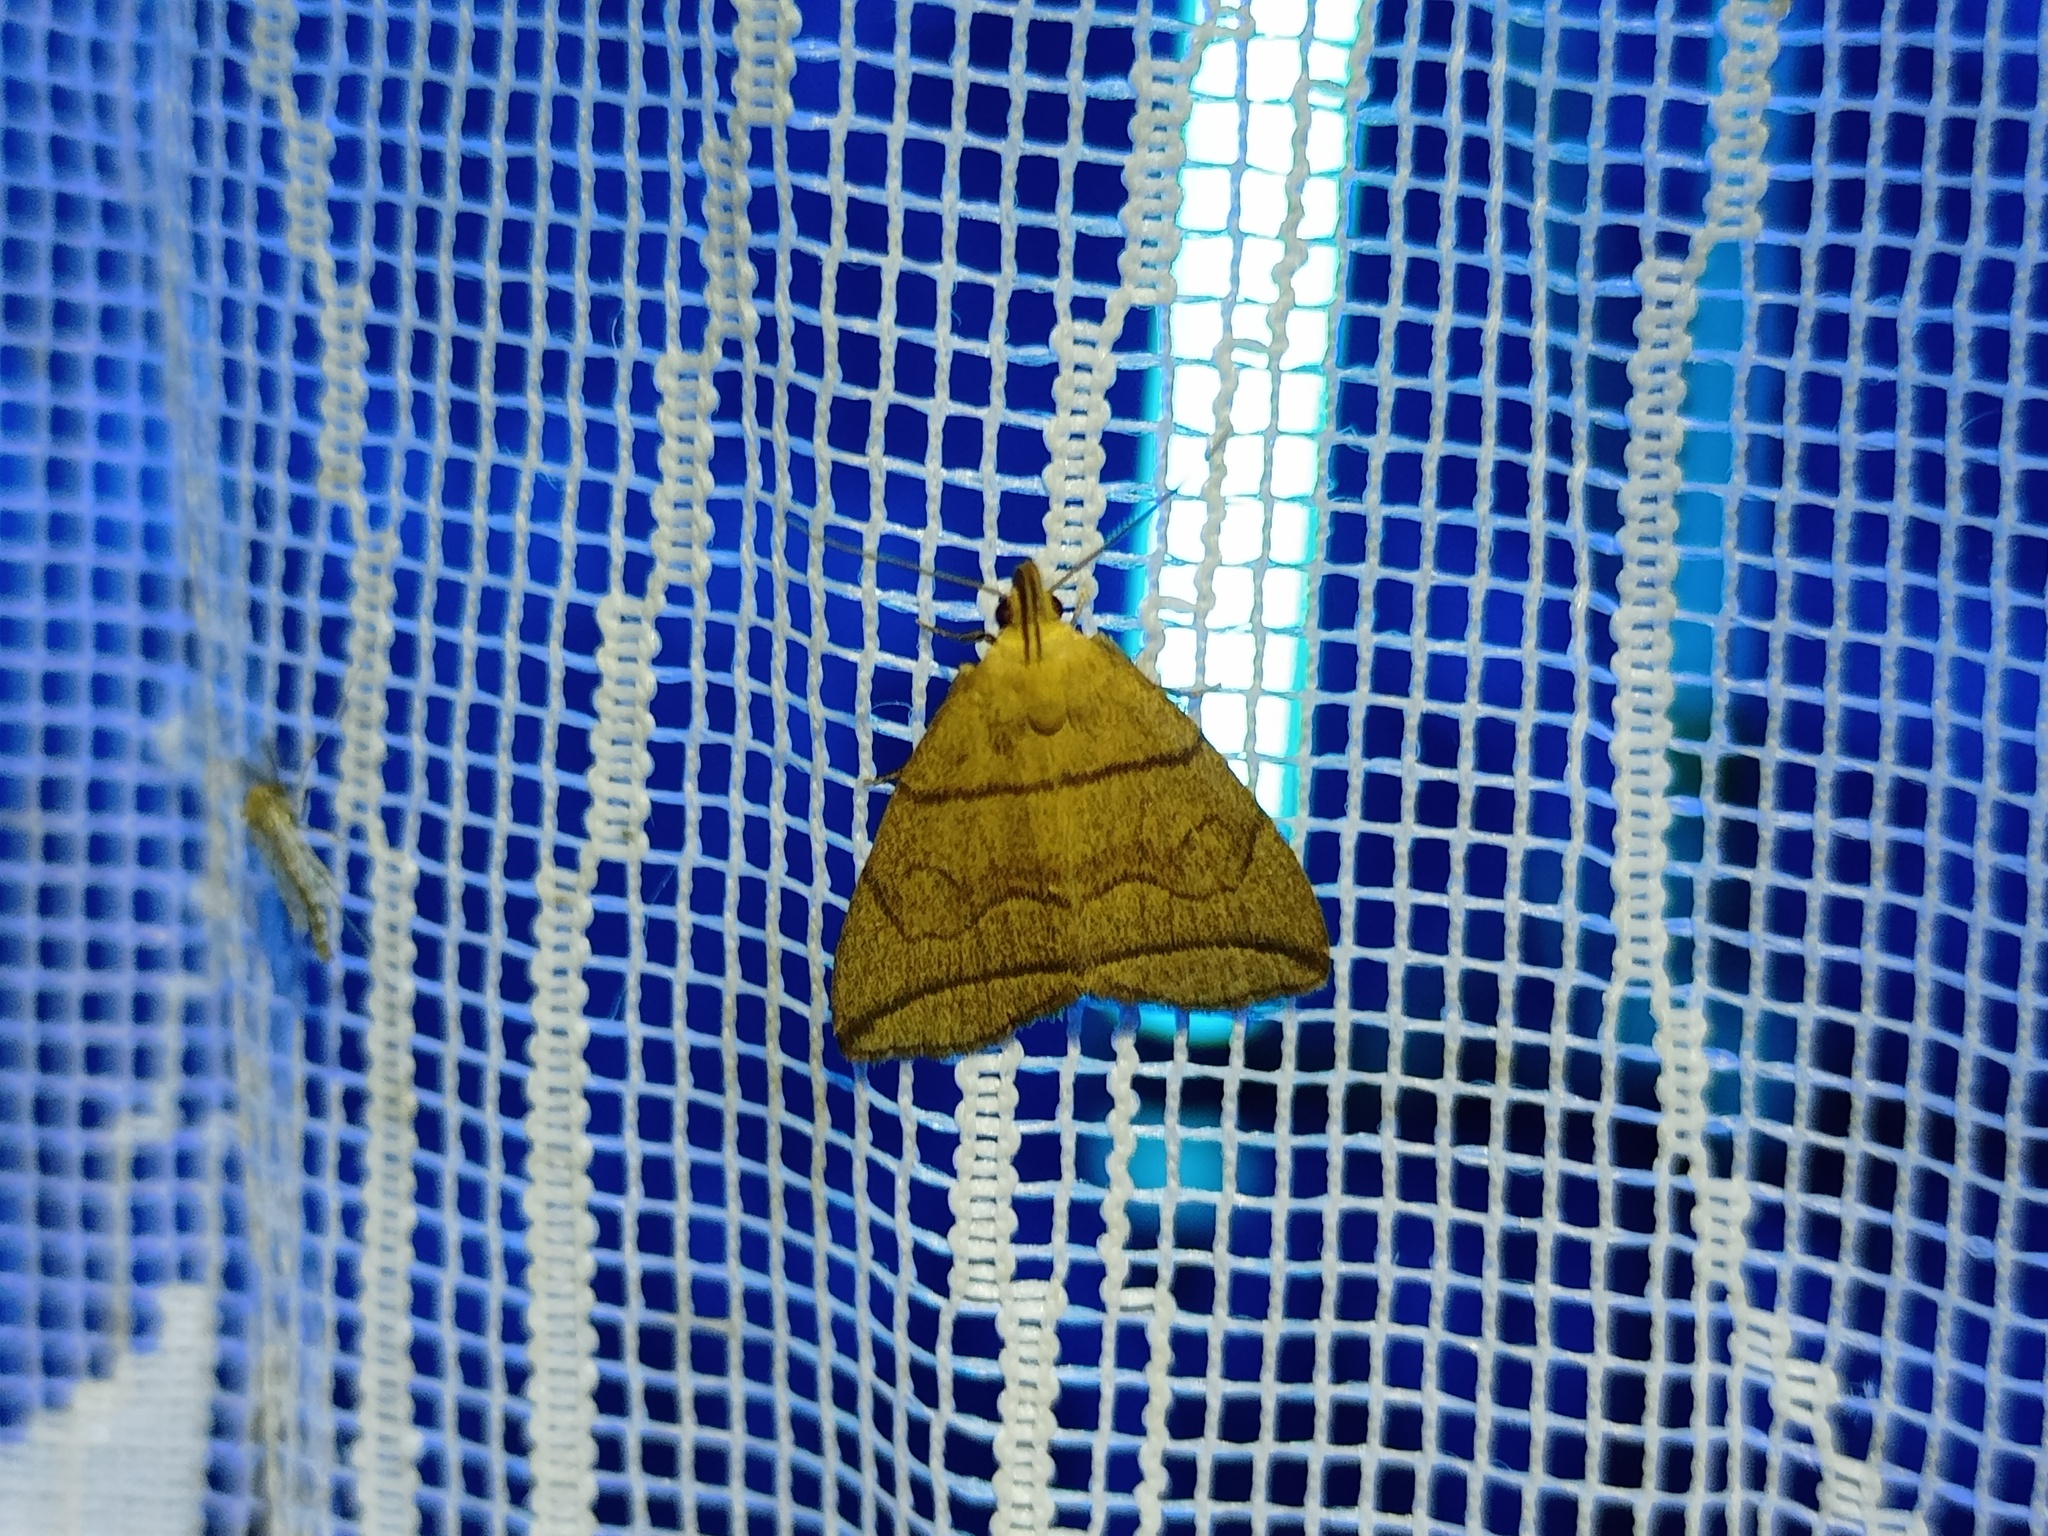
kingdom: Animalia
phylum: Arthropoda
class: Insecta
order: Lepidoptera
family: Erebidae
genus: Herminia
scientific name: Herminia grisealis
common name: Small fan-foot
